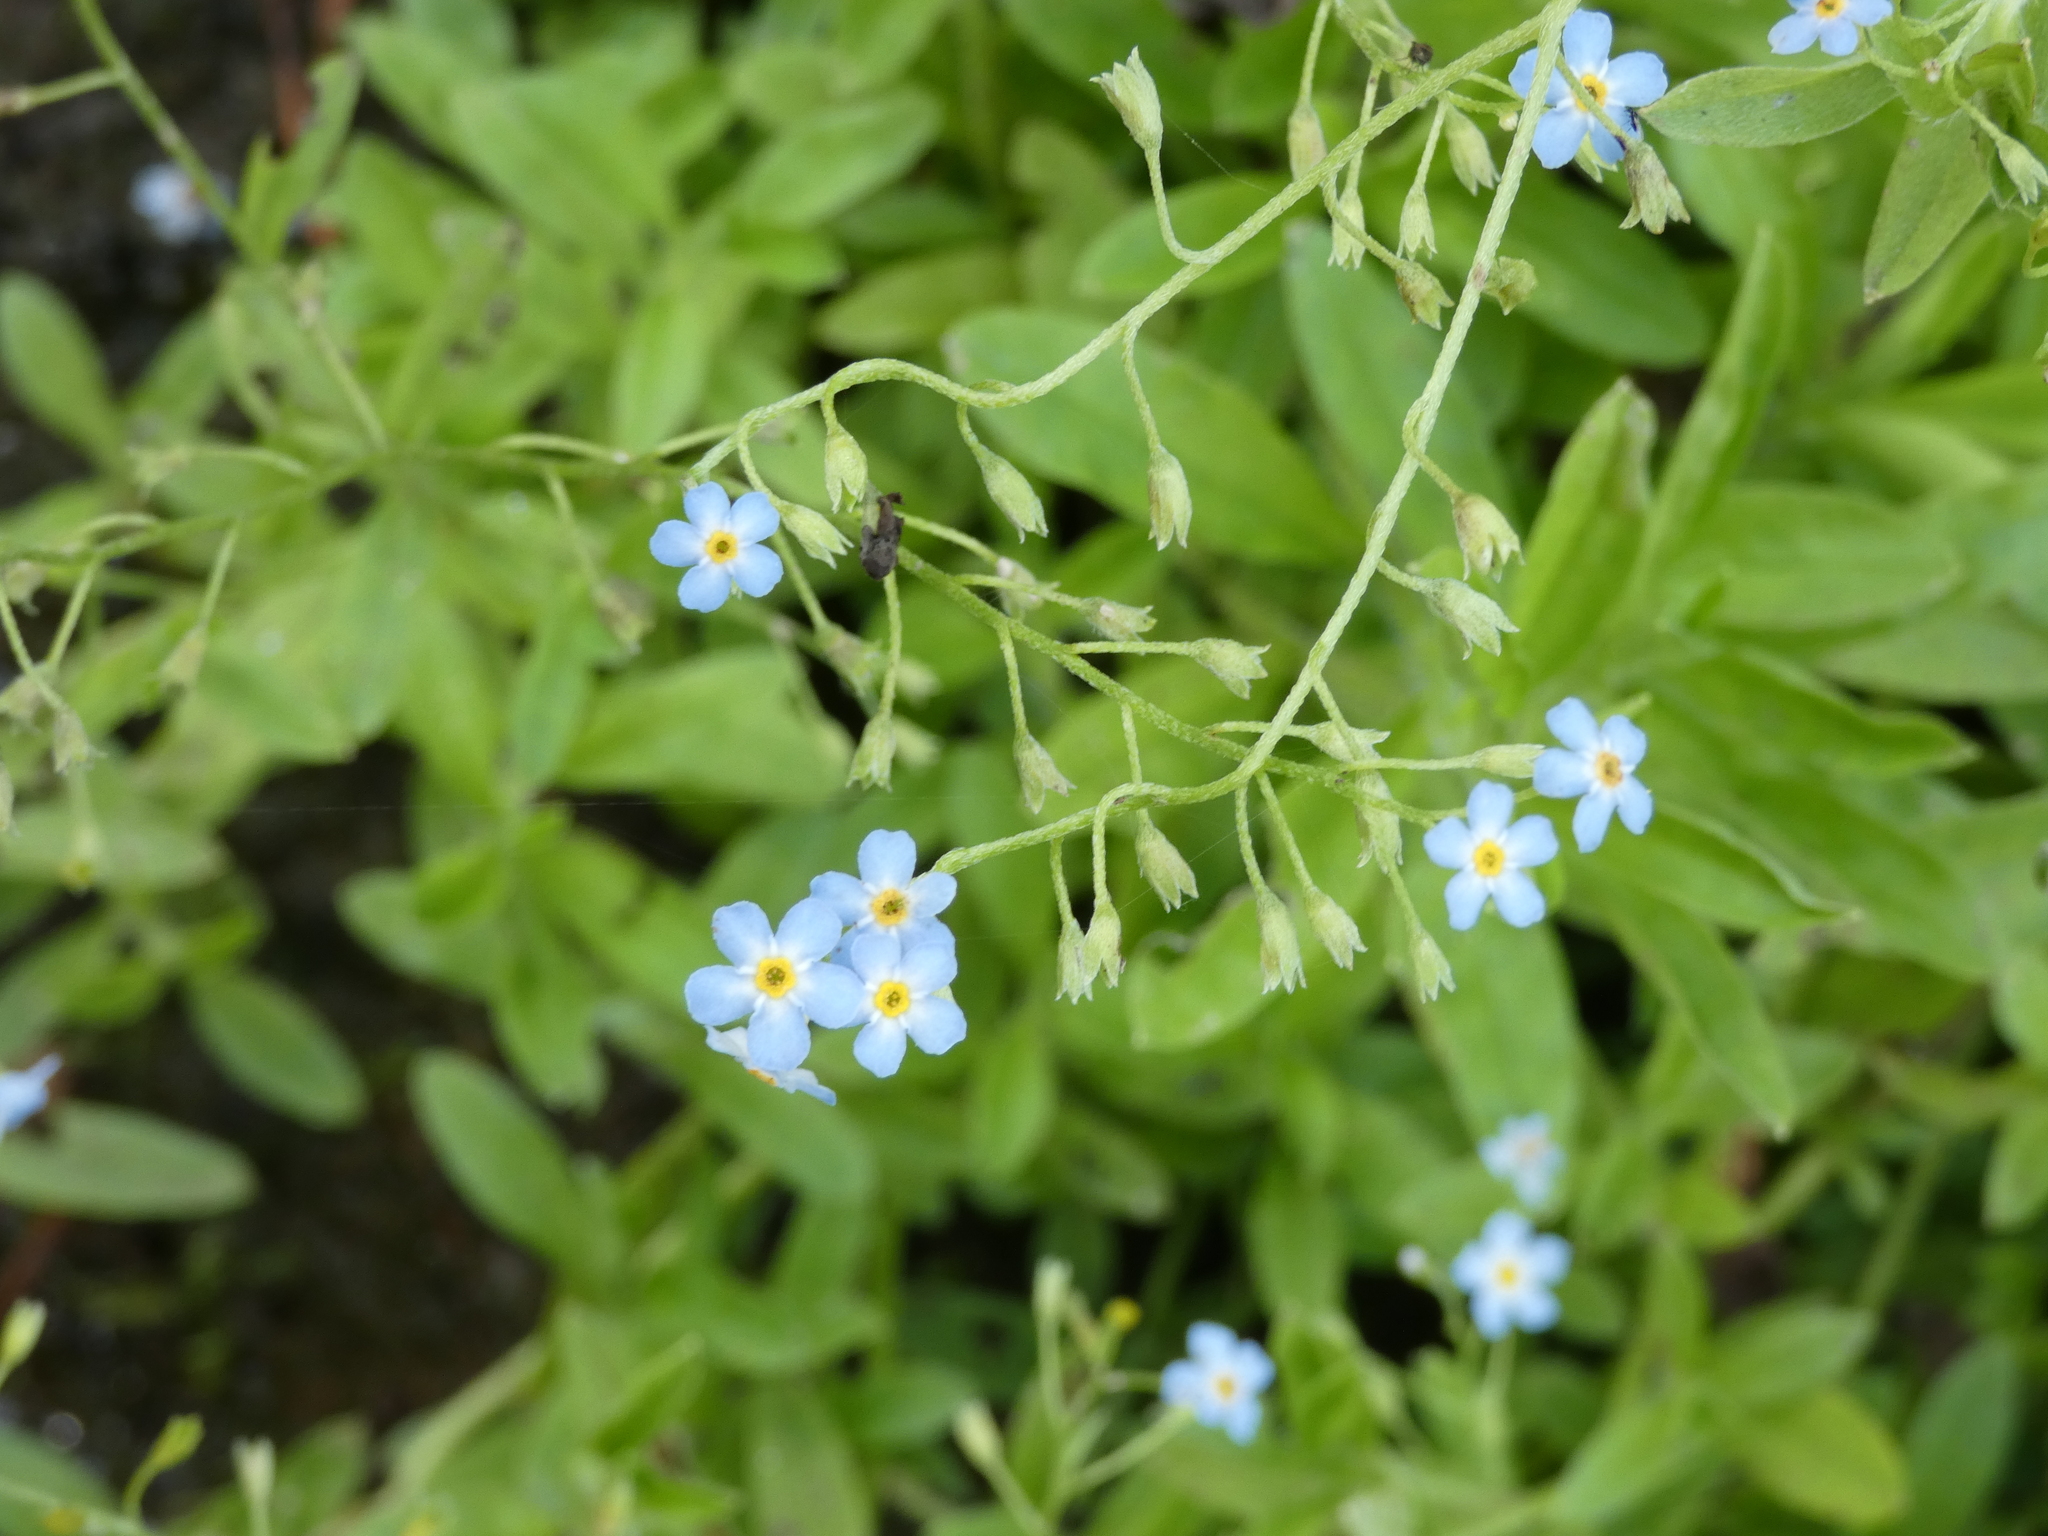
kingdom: Plantae
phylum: Tracheophyta
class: Magnoliopsida
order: Boraginales
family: Boraginaceae
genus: Myosotis
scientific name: Myosotis scorpioides
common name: Water forget-me-not
